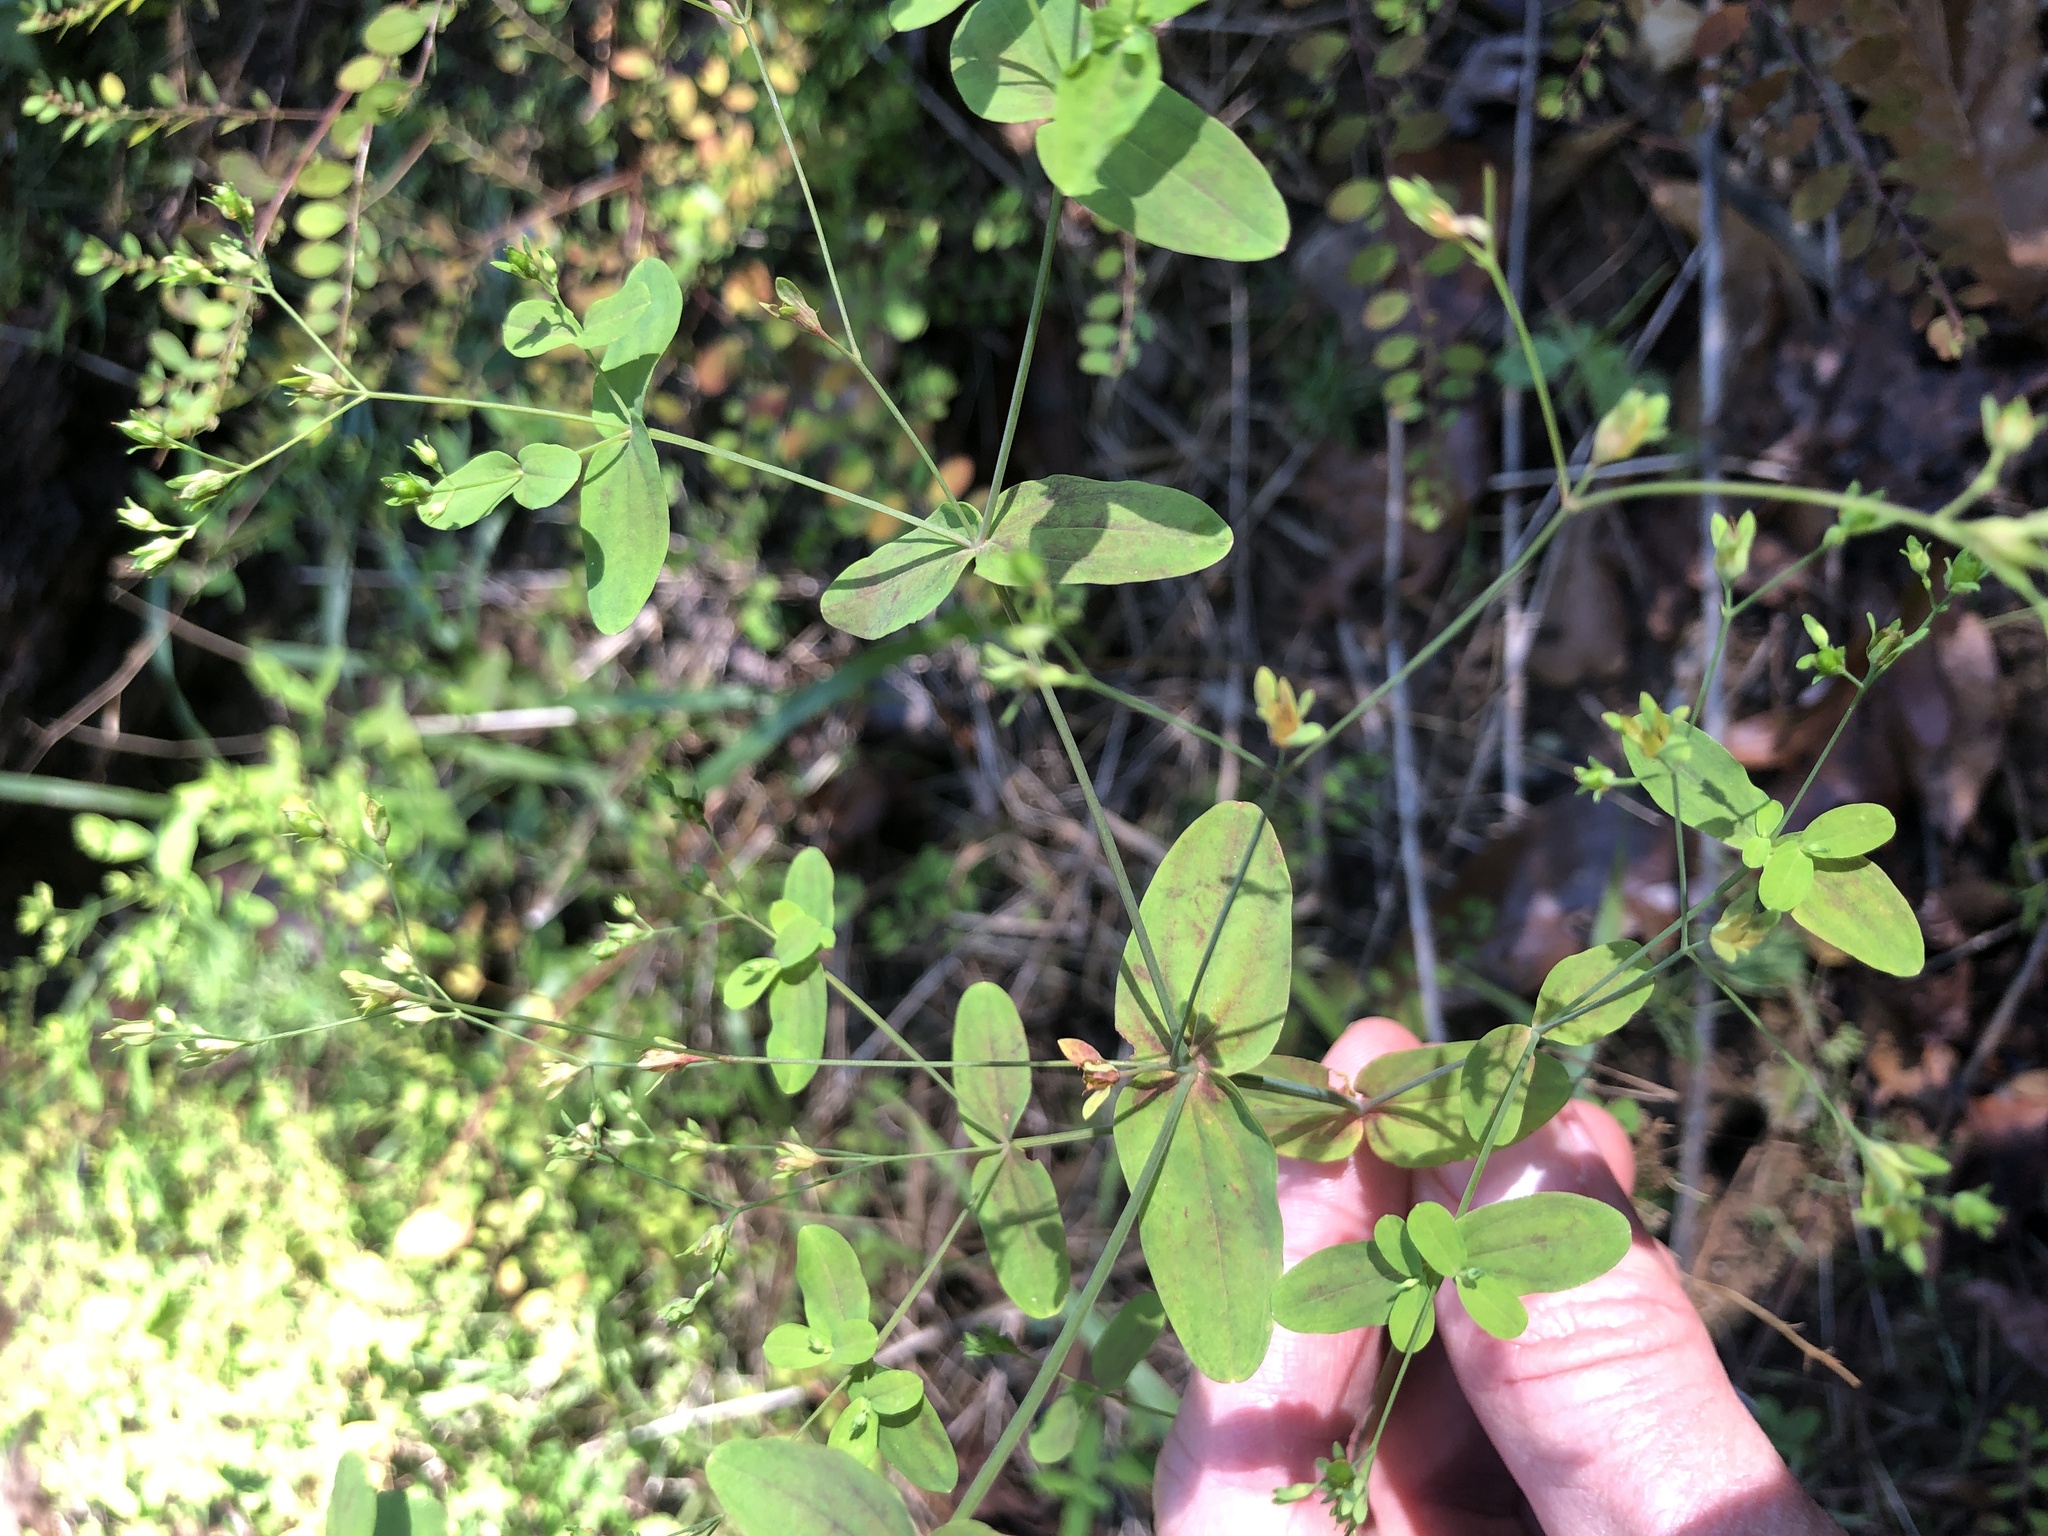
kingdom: Plantae
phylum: Tracheophyta
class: Magnoliopsida
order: Malpighiales
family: Hypericaceae
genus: Hypericum
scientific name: Hypericum mutilum
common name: Dwarf st. john's-wort
